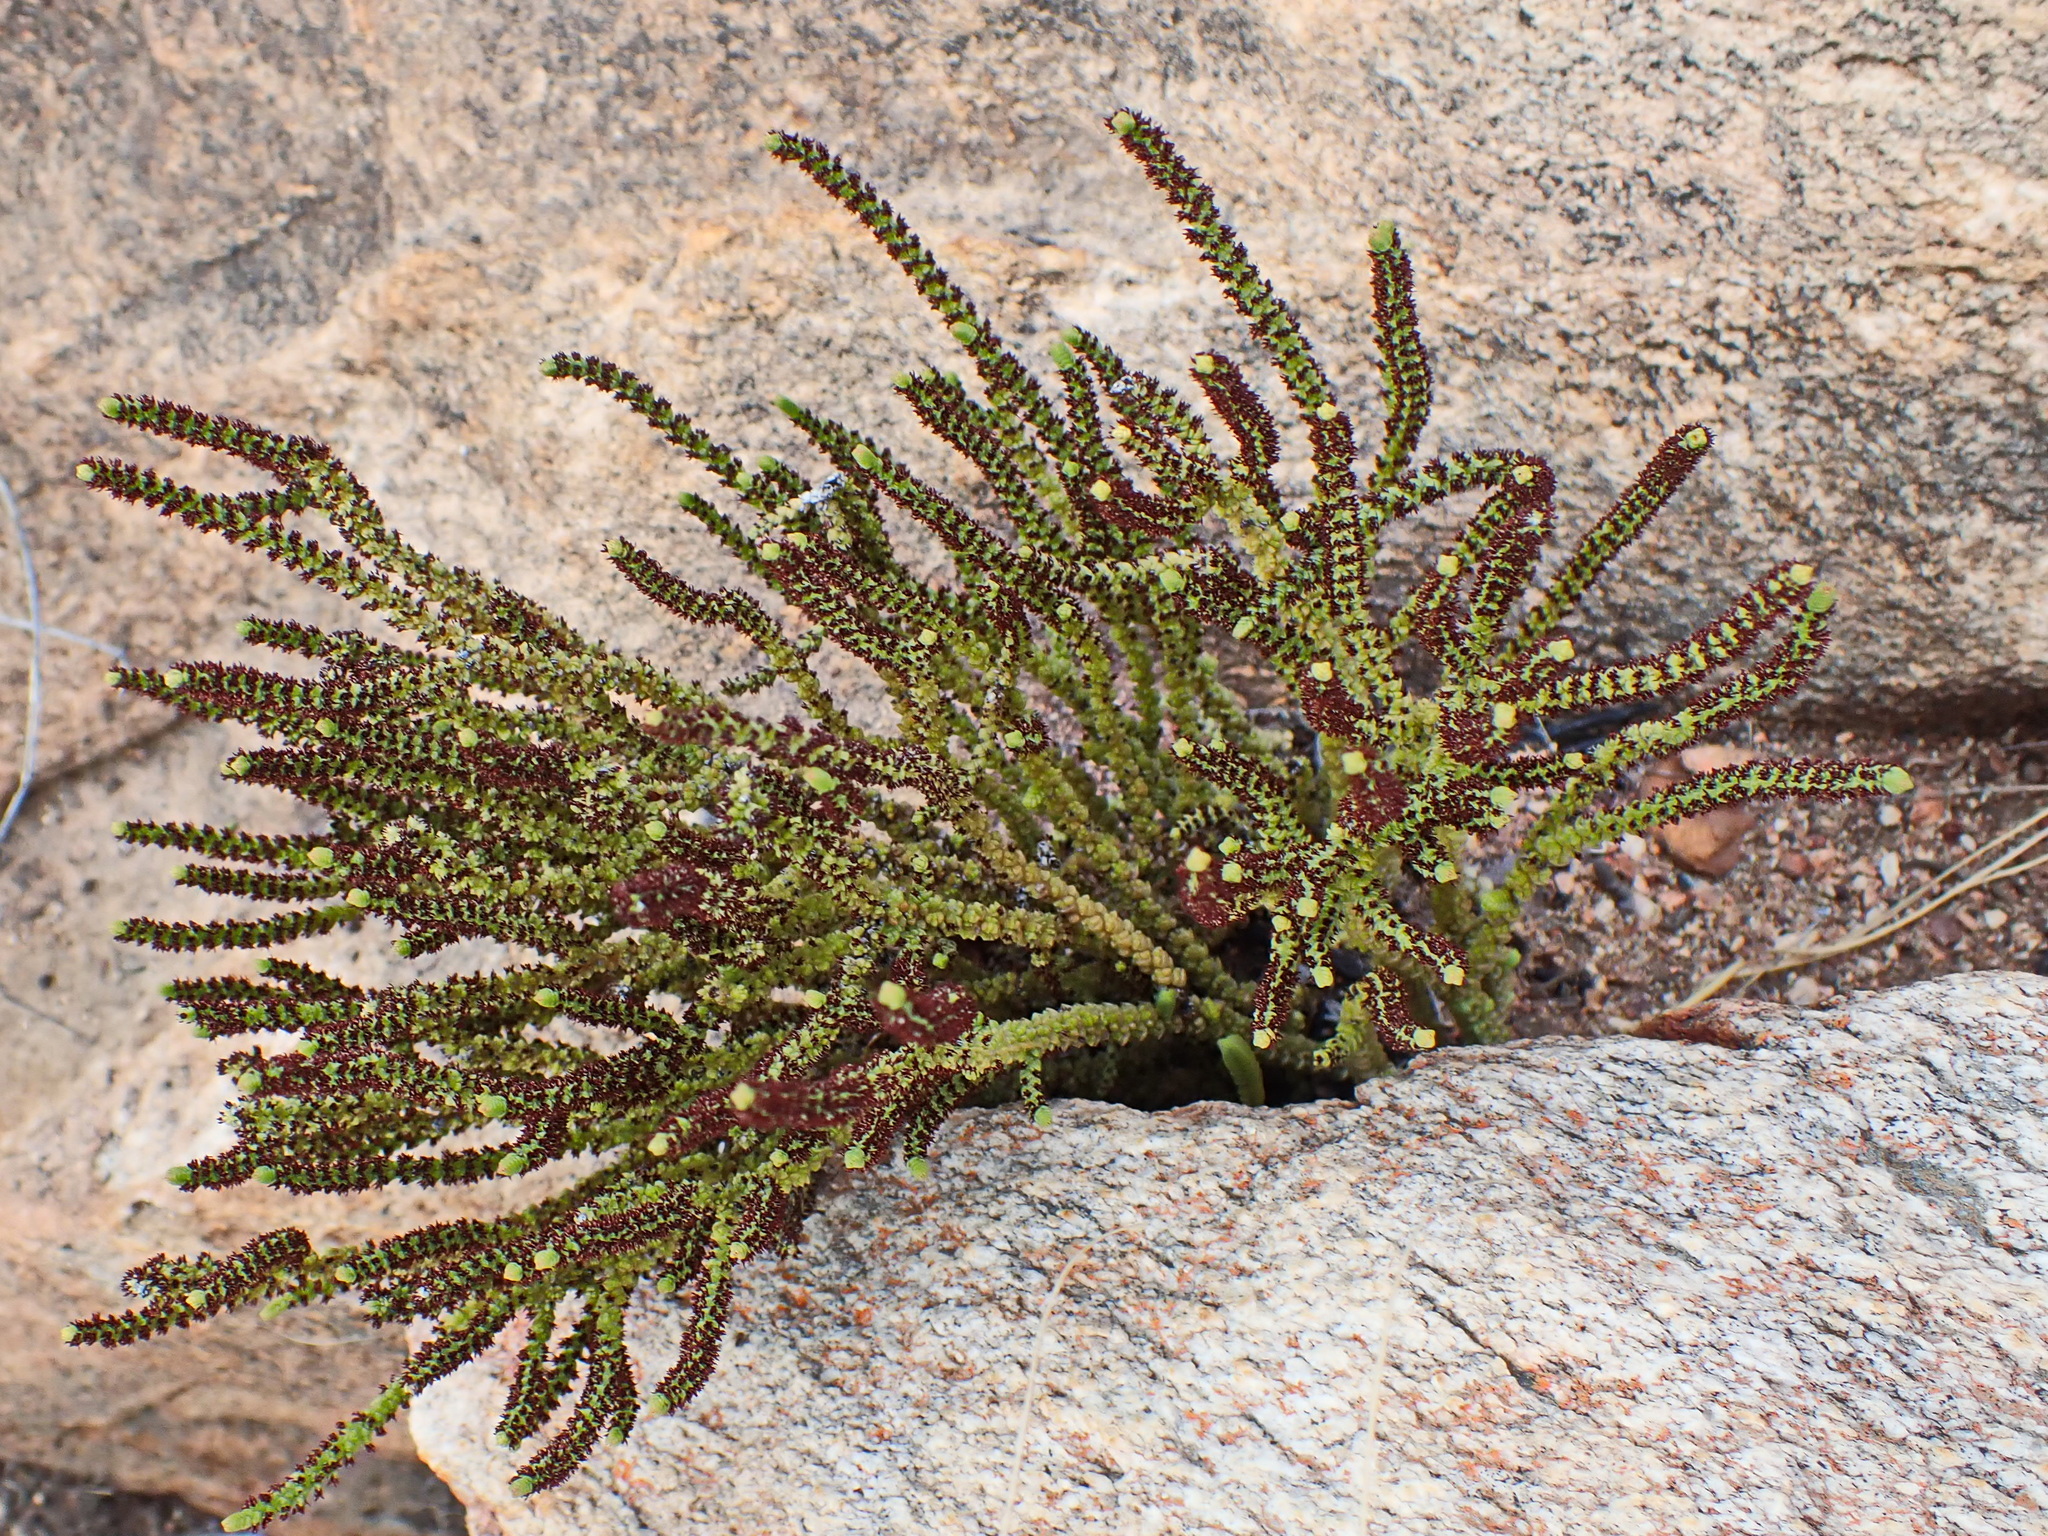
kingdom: Plantae
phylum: Tracheophyta
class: Magnoliopsida
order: Saxifragales
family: Crassulaceae
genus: Crassula
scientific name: Crassula muscosa
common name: Toy-cypress
